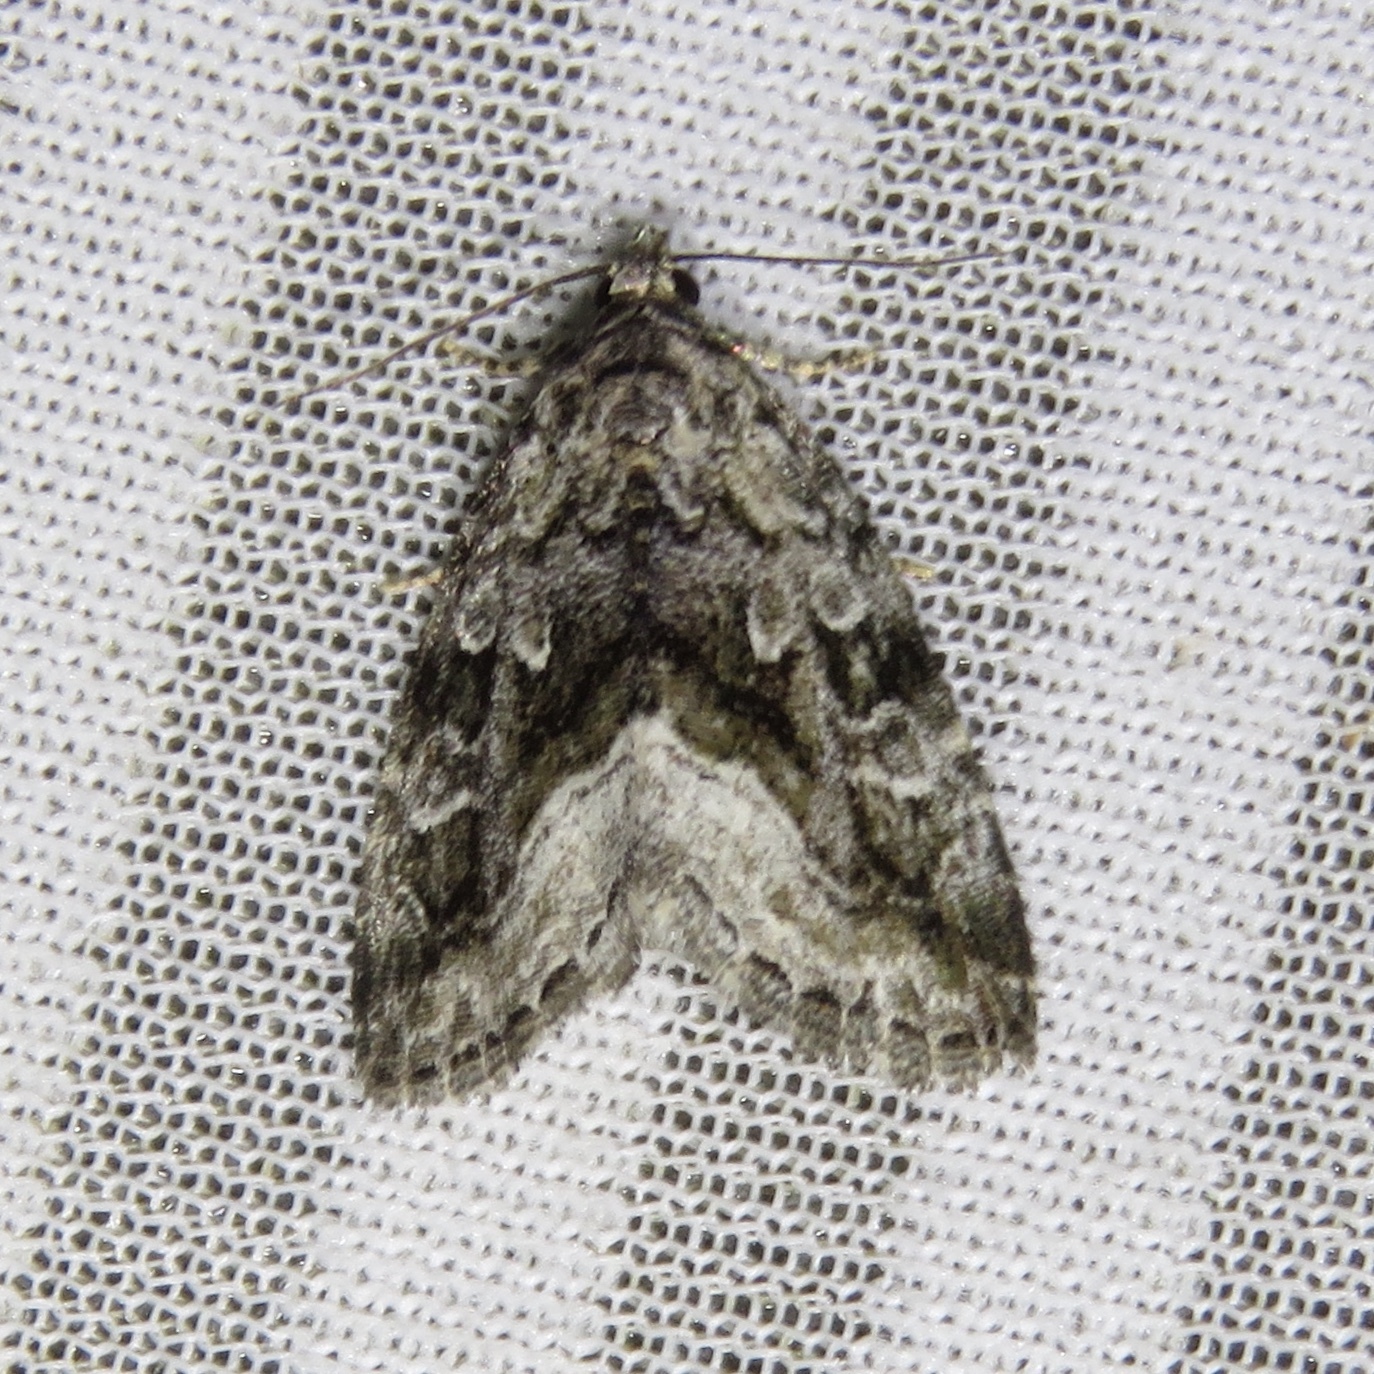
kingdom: Animalia
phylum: Arthropoda
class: Insecta
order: Lepidoptera
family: Noctuidae
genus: Protodeltote
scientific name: Protodeltote muscosula
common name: Large mossy glyph
